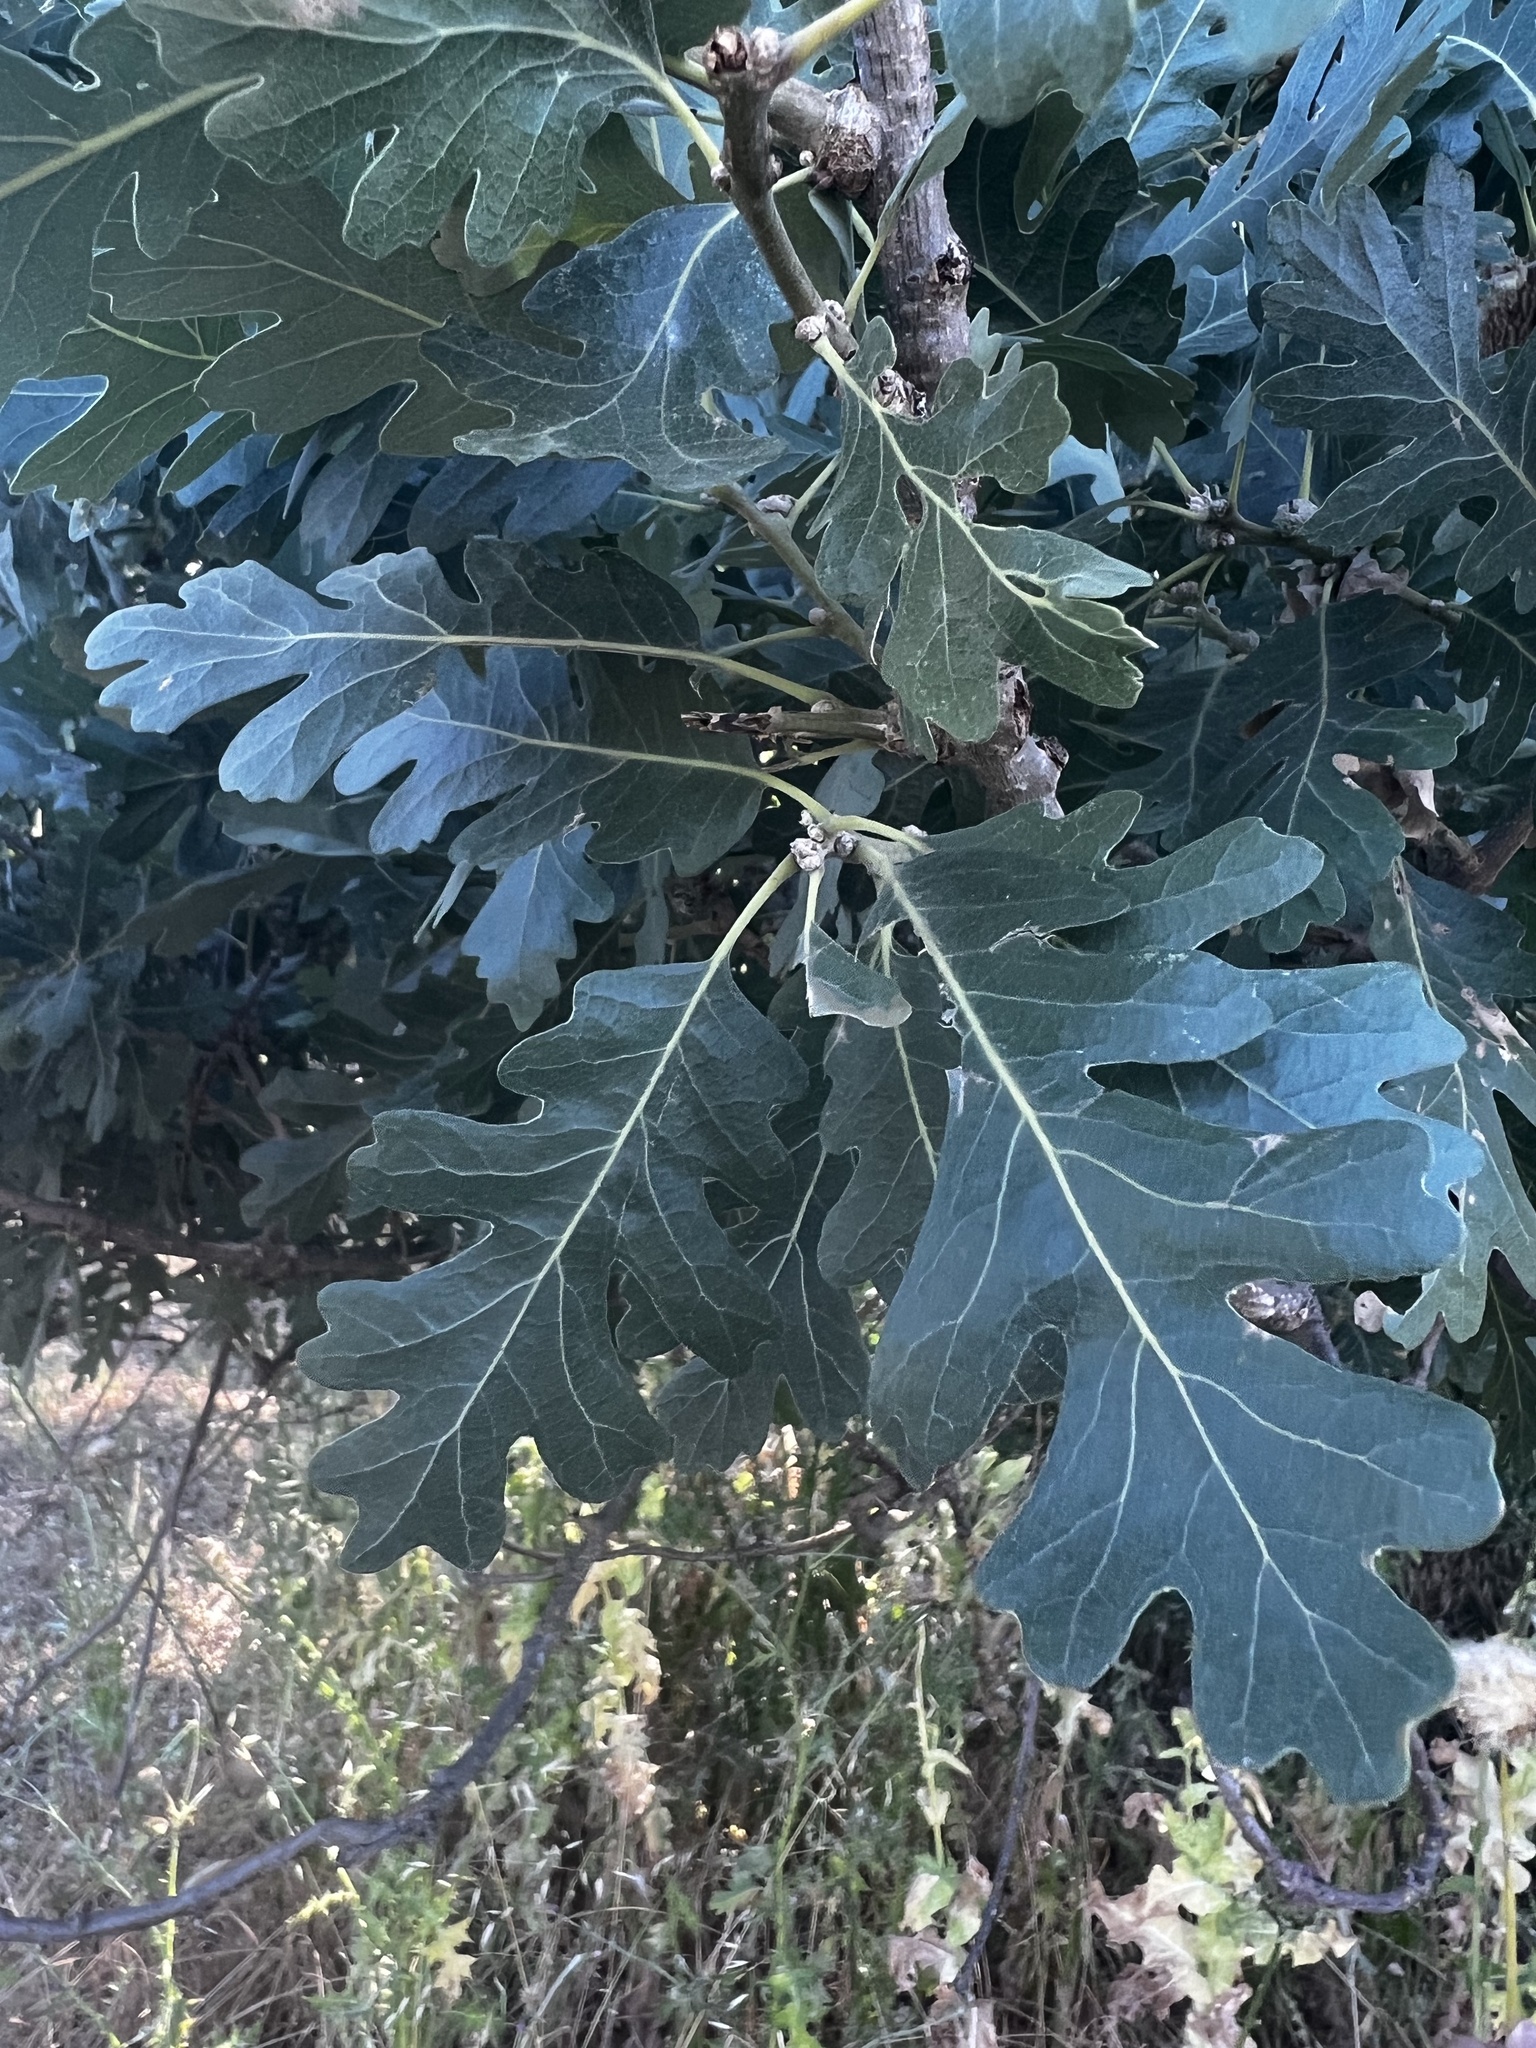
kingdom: Plantae
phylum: Tracheophyta
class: Magnoliopsida
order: Fagales
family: Fagaceae
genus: Quercus
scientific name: Quercus lobata
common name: Valley oak
